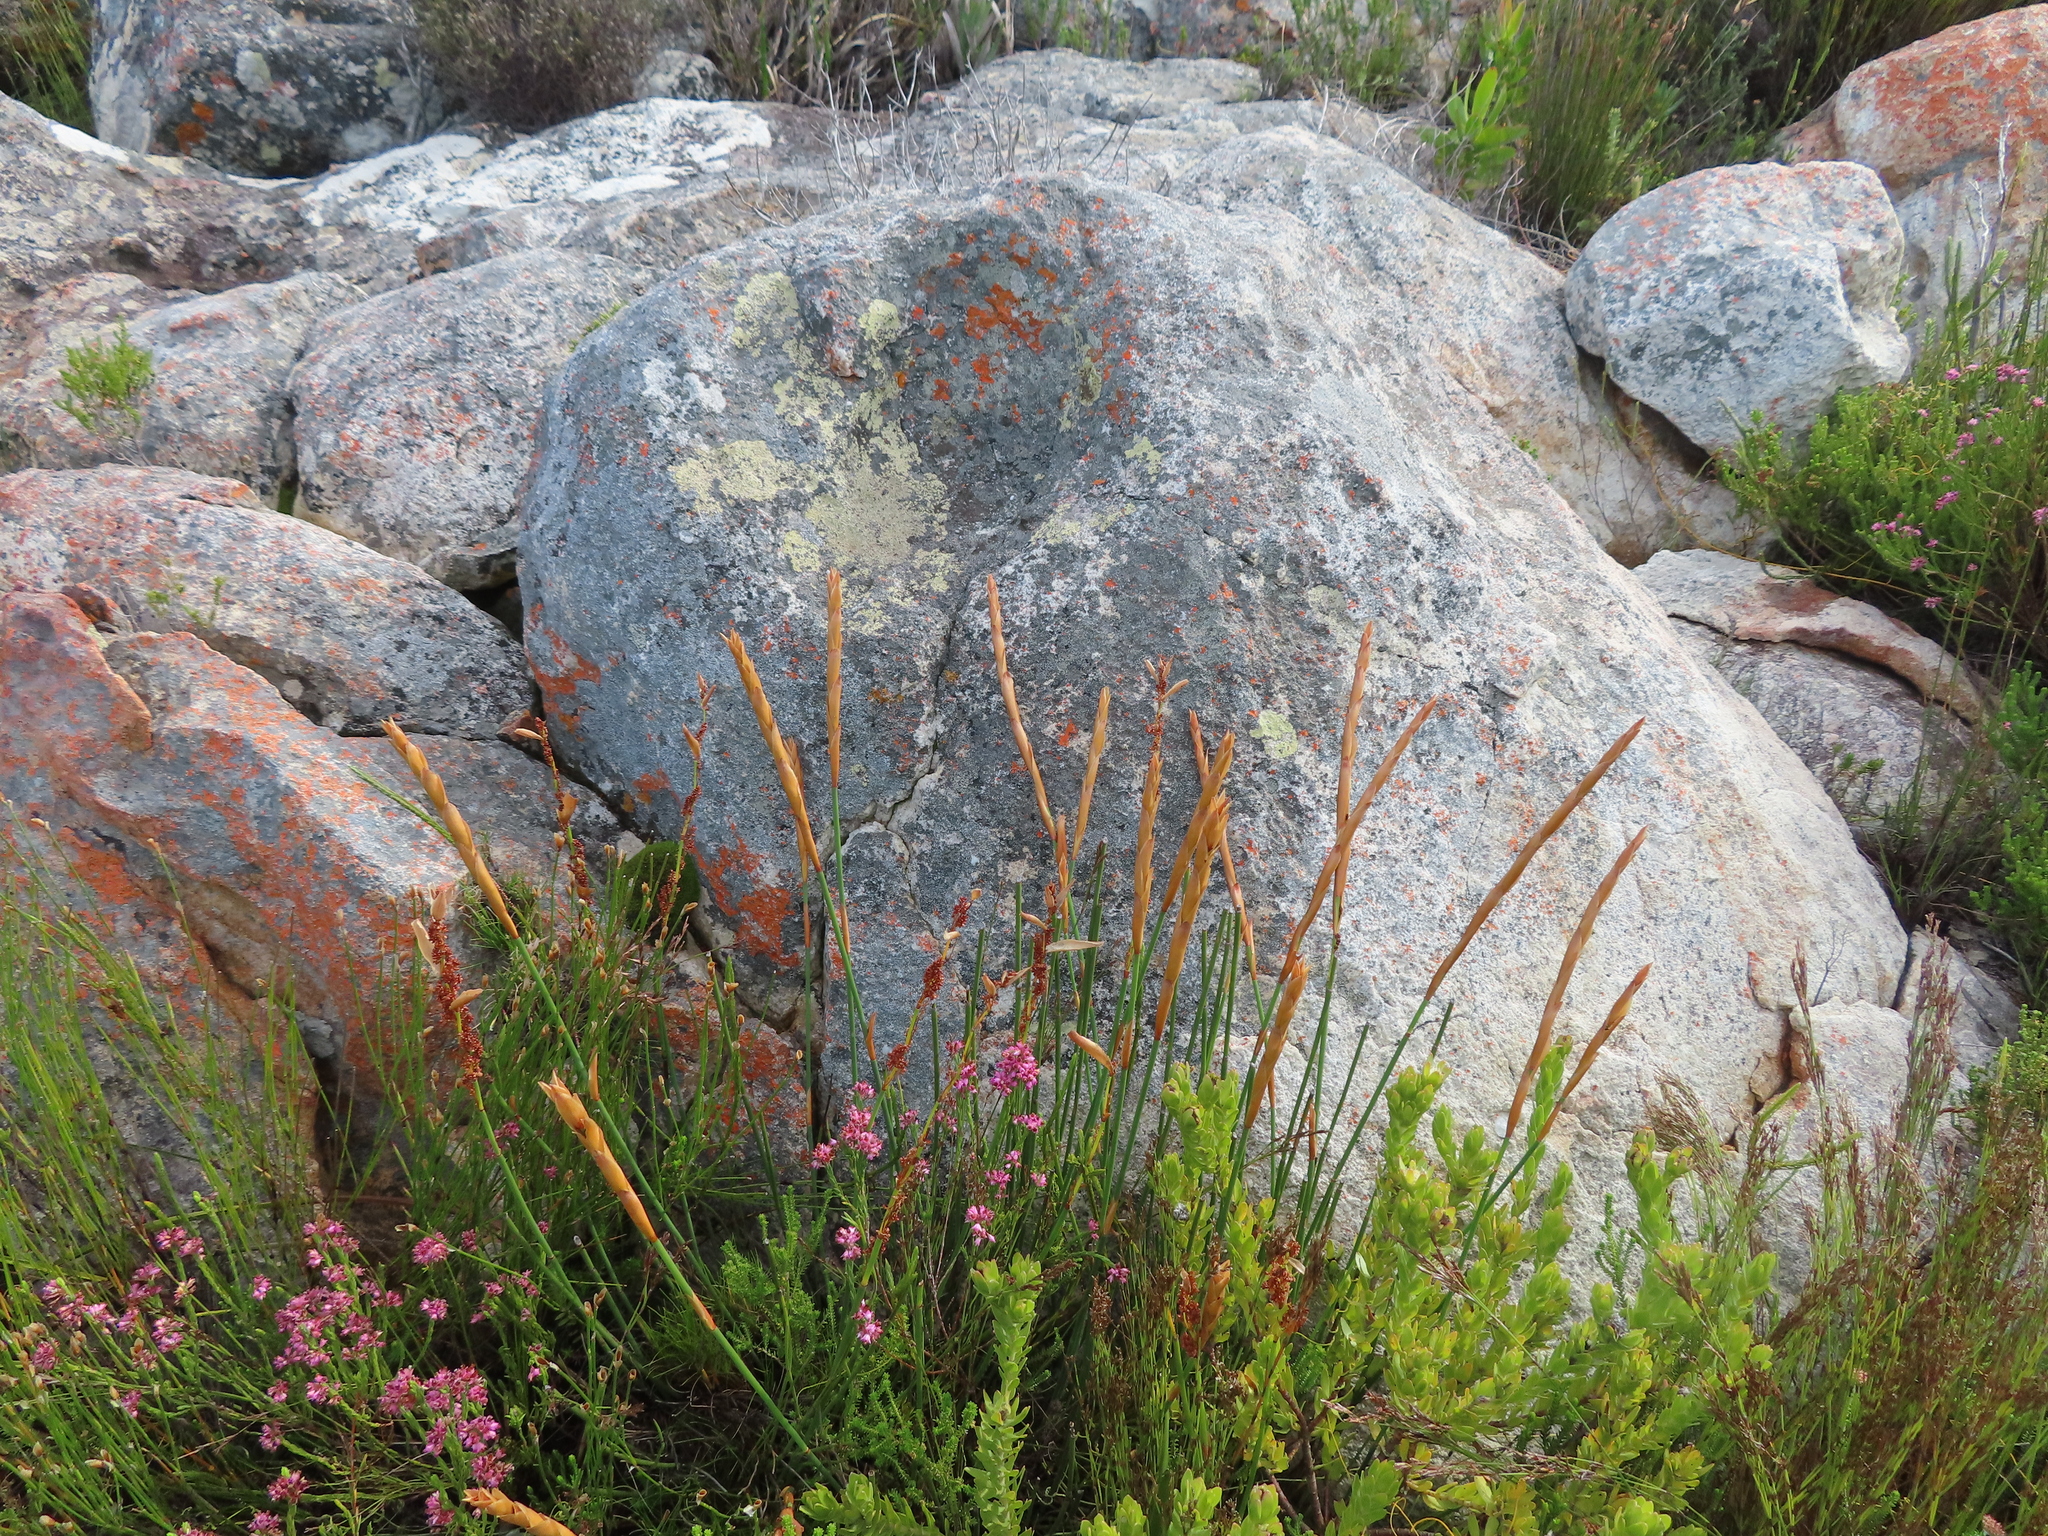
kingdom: Plantae
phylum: Tracheophyta
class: Liliopsida
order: Poales
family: Restionaceae
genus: Elegia
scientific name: Elegia persistens
